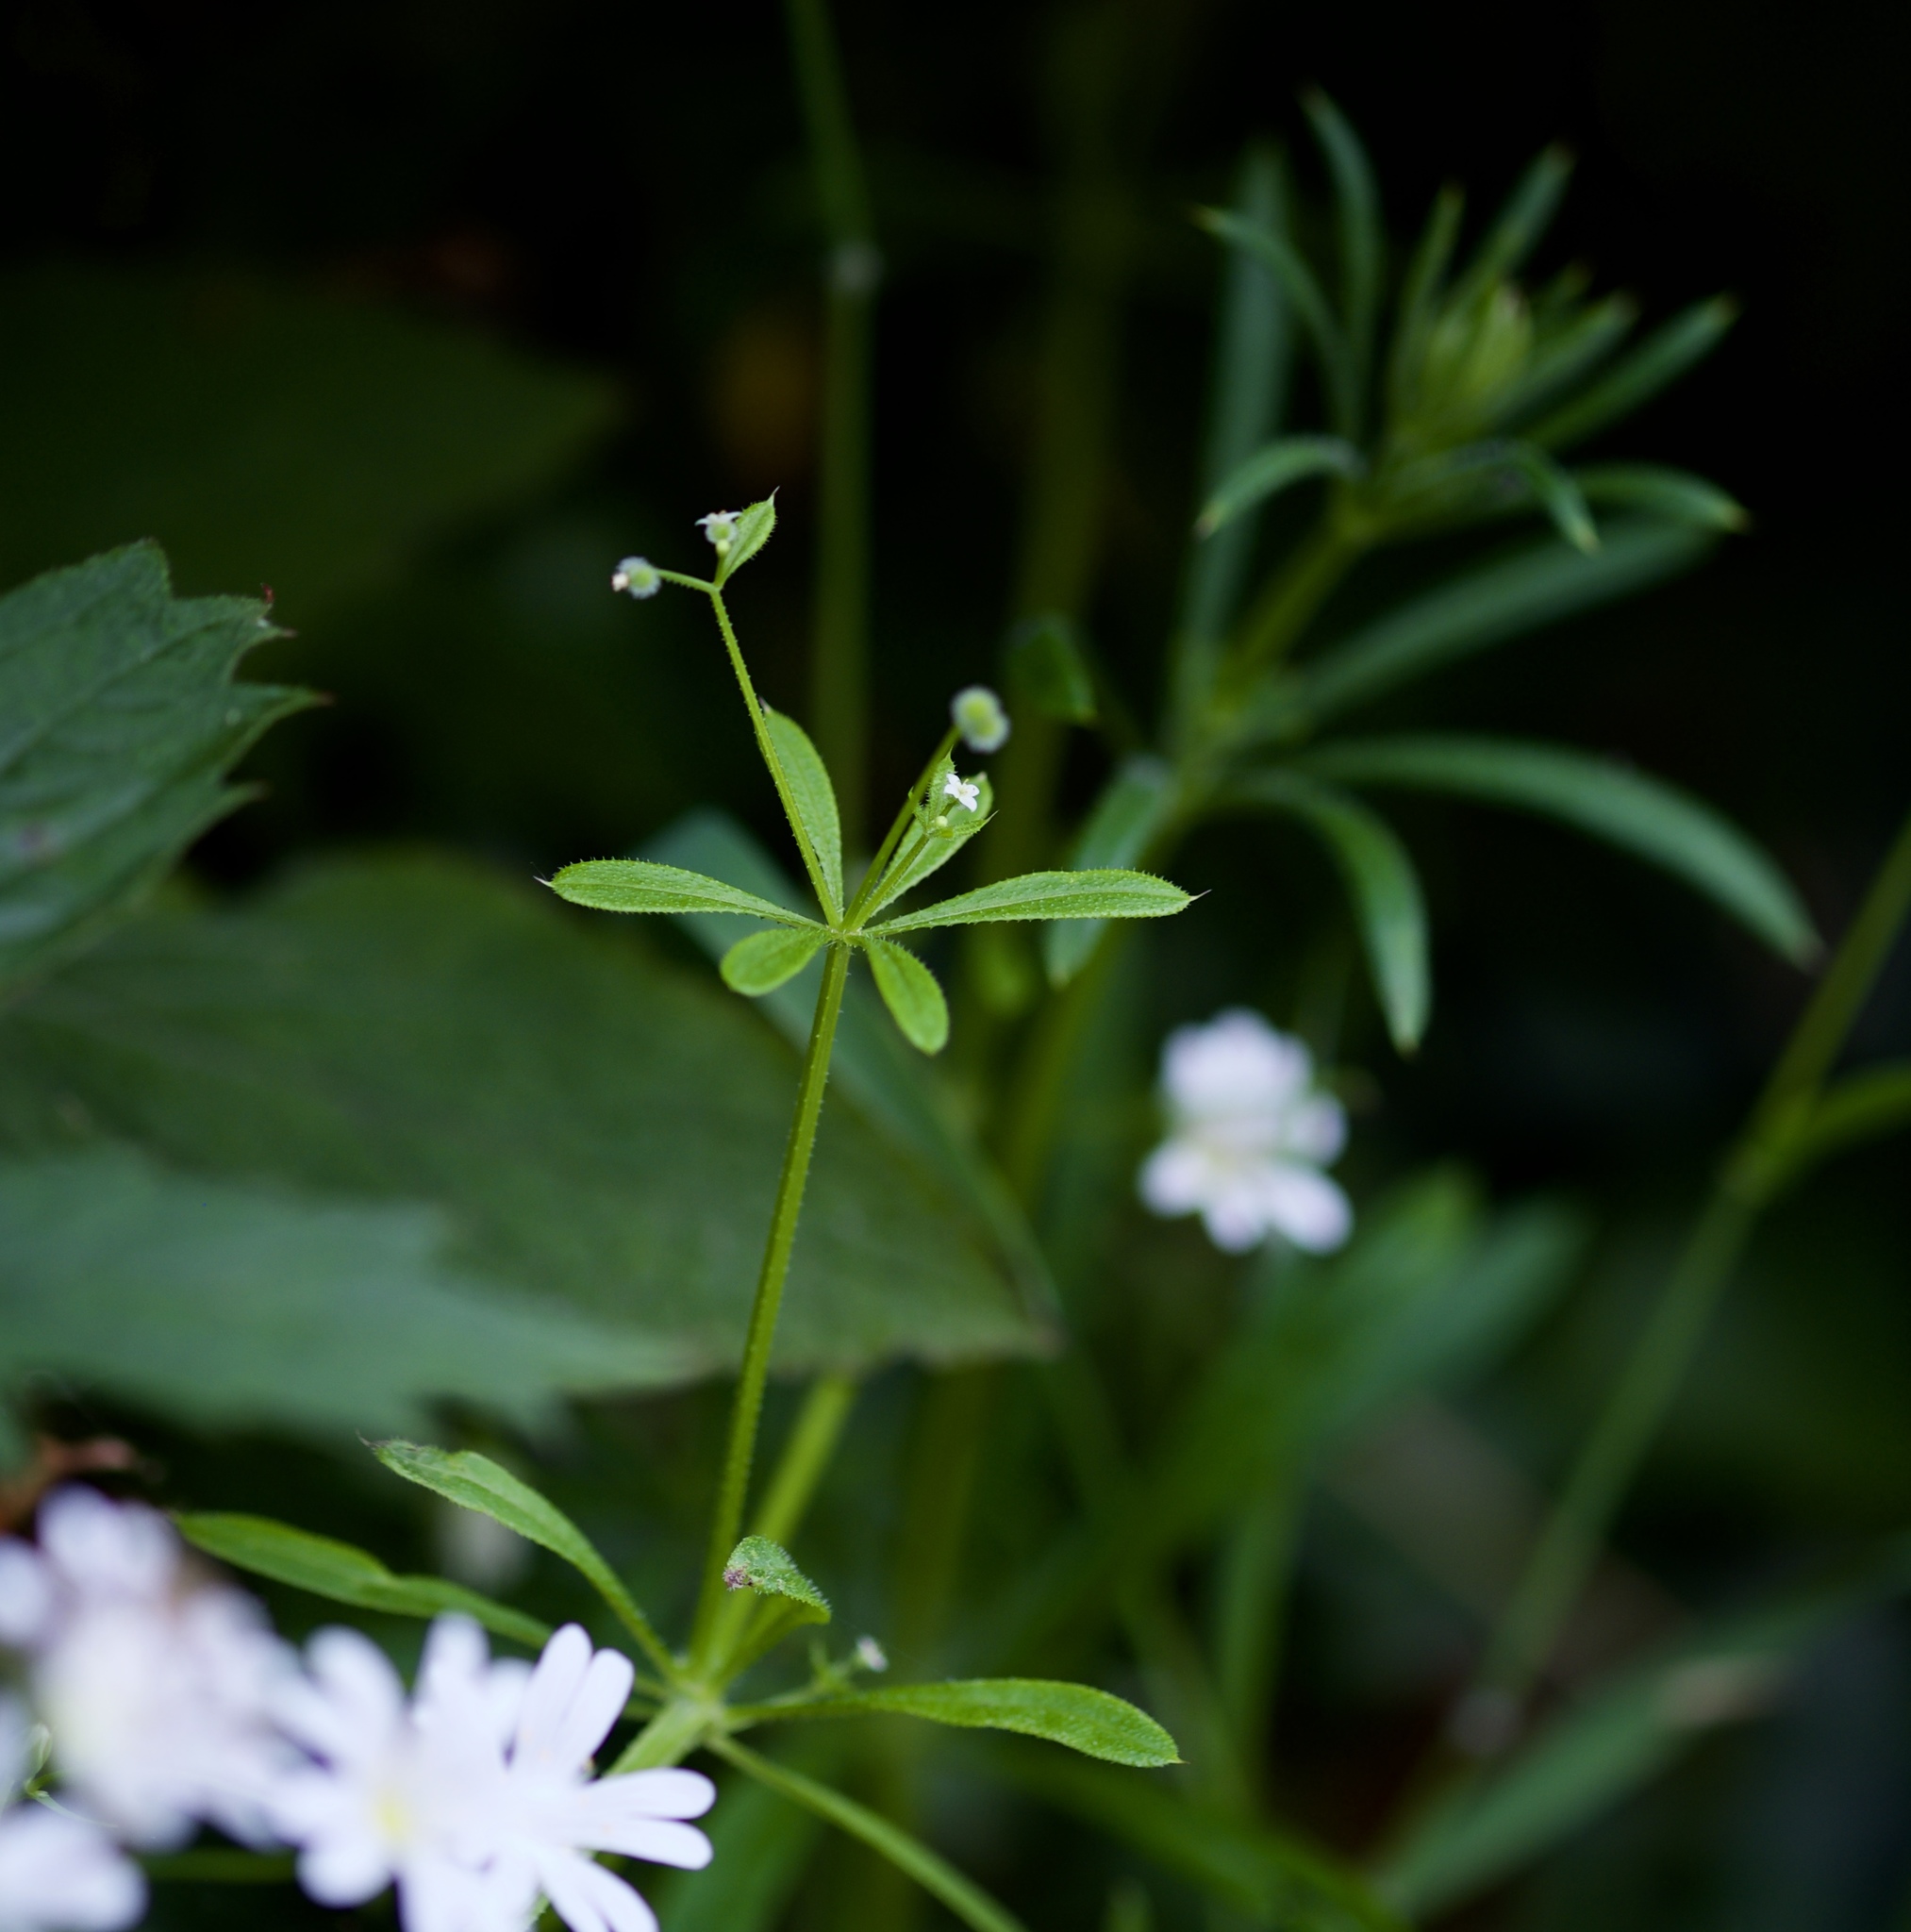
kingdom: Plantae
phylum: Tracheophyta
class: Magnoliopsida
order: Gentianales
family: Rubiaceae
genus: Galium
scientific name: Galium aparine
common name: Cleavers
